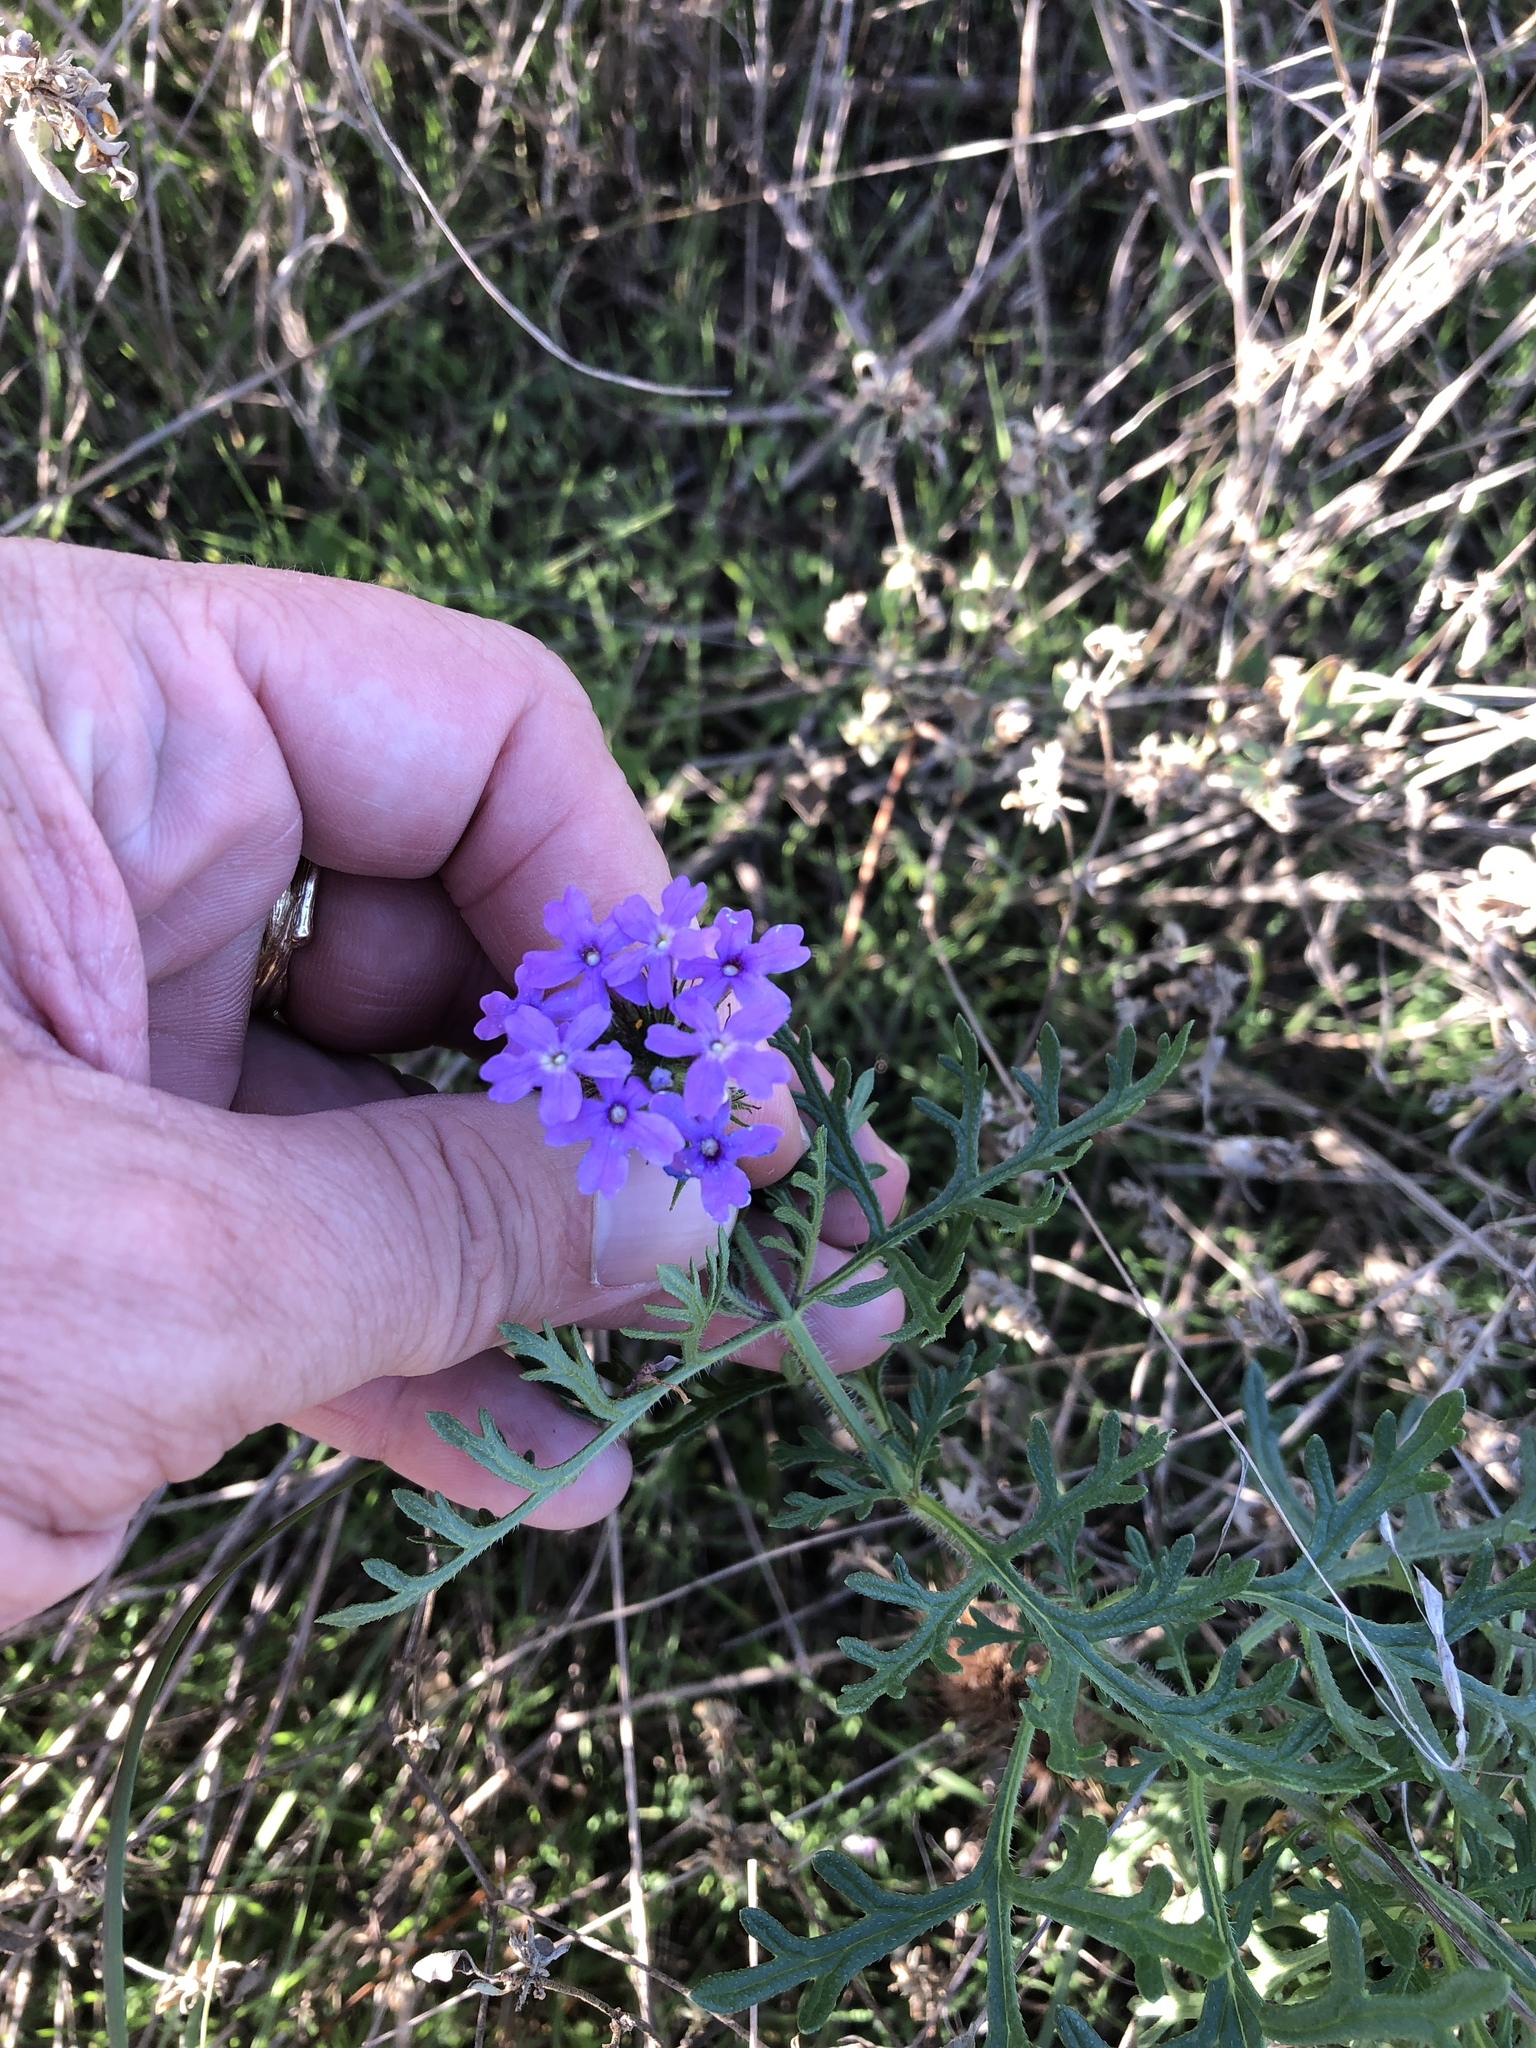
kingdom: Plantae
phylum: Tracheophyta
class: Magnoliopsida
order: Lamiales
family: Verbenaceae
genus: Verbena
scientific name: Verbena bipinnatifida
